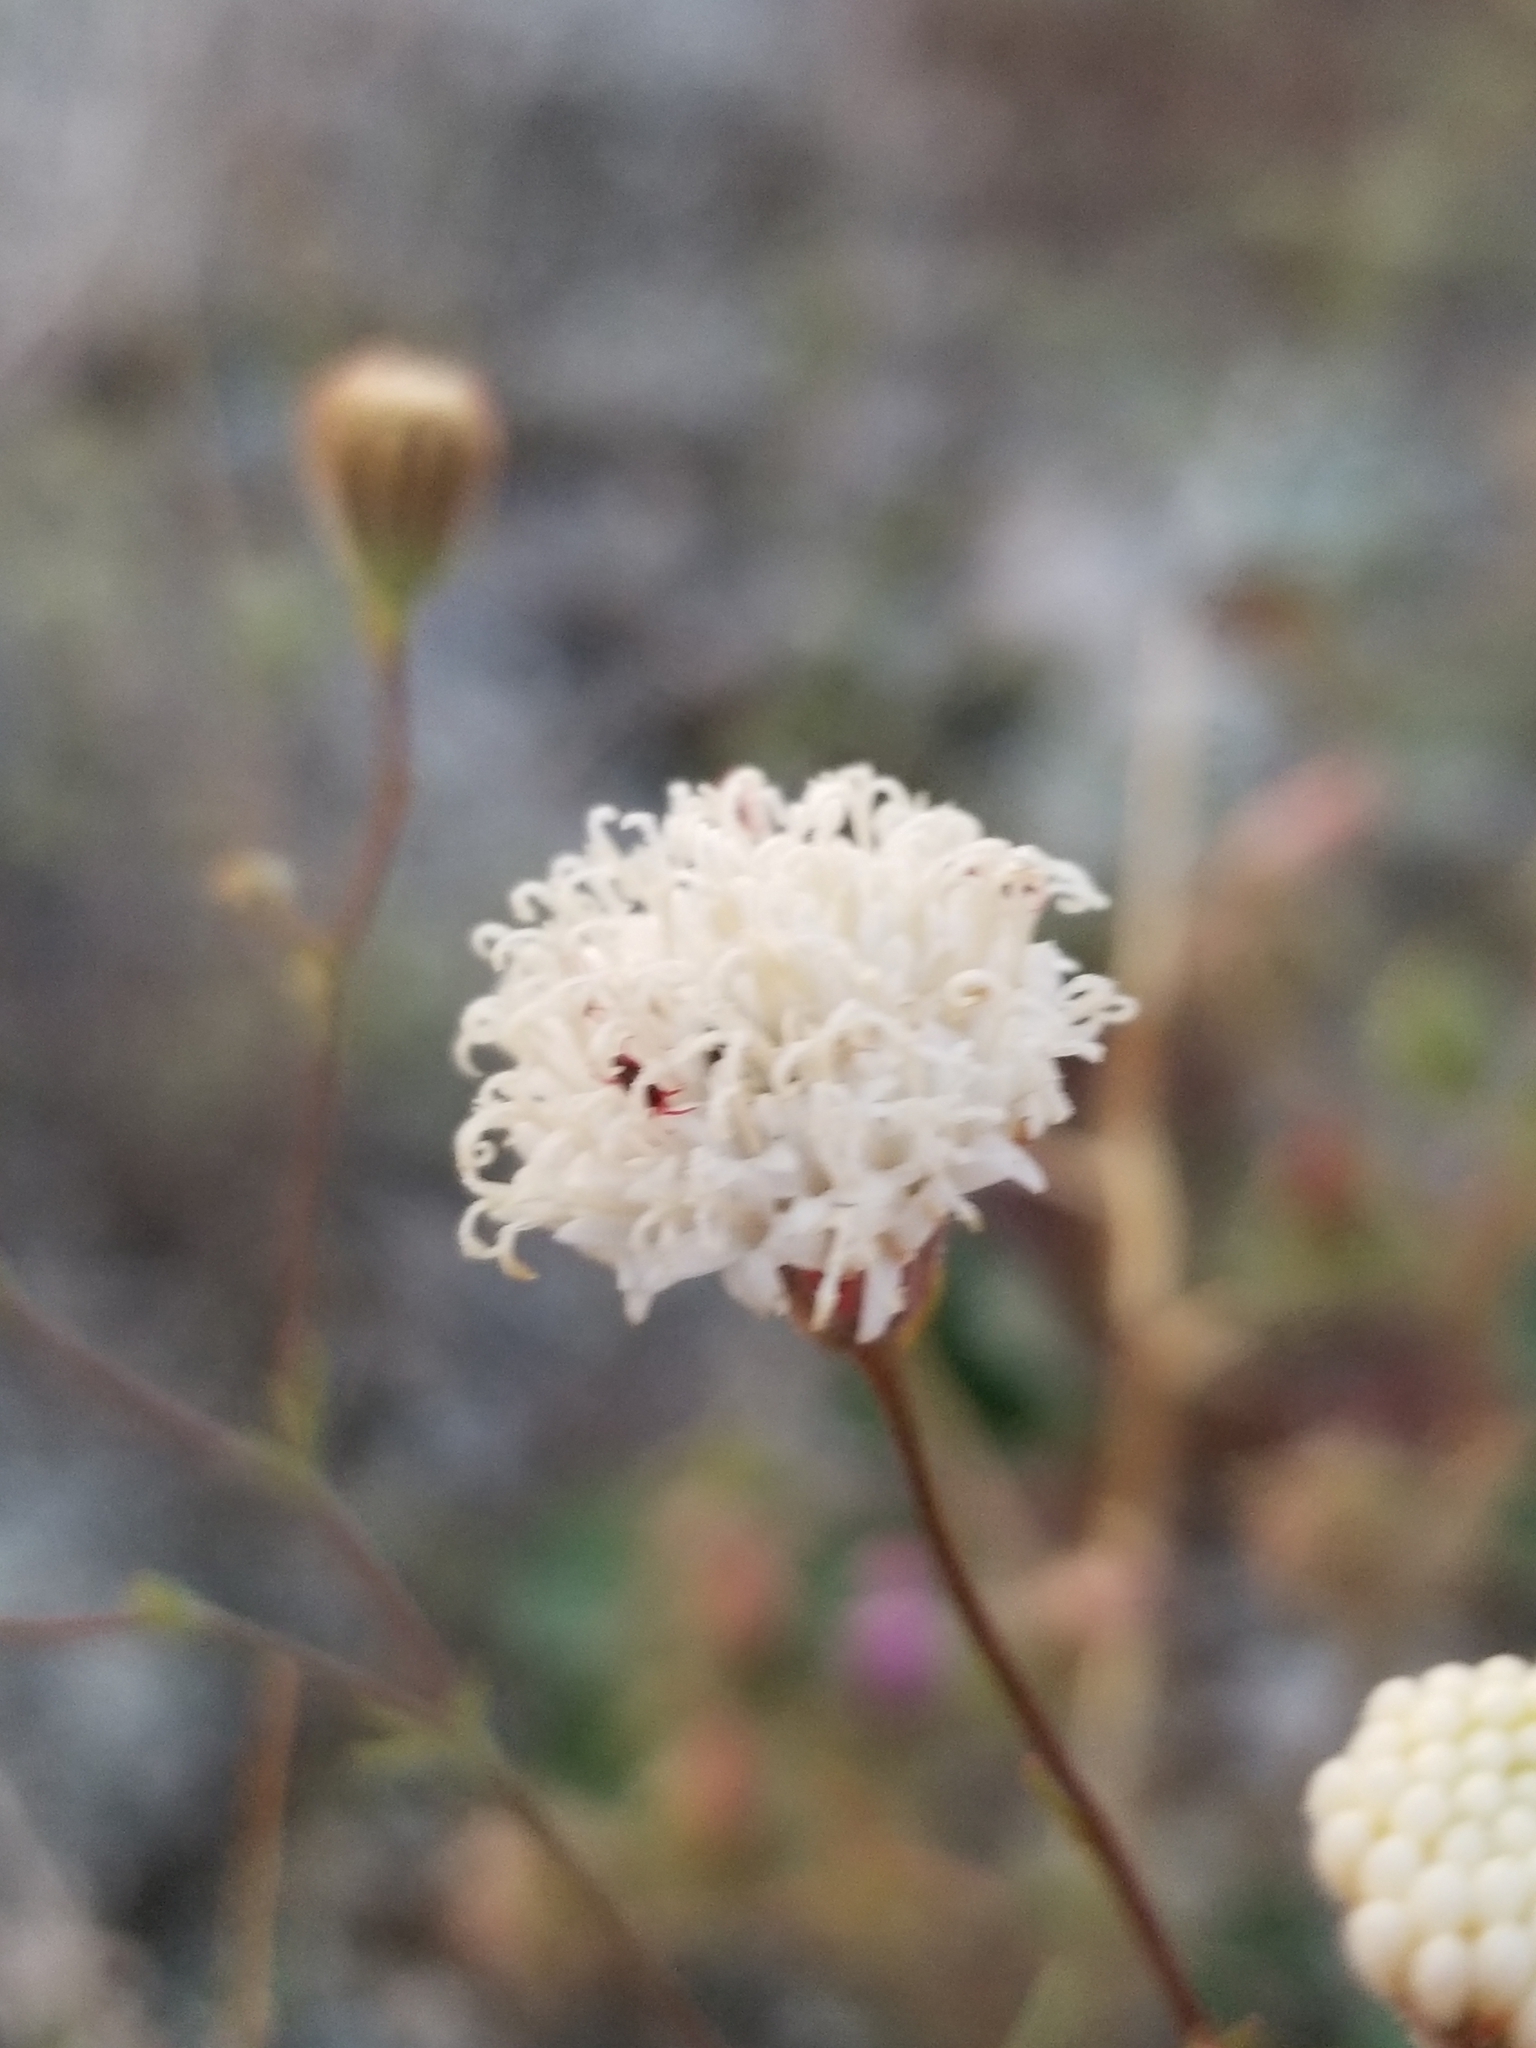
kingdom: Plantae
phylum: Tracheophyta
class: Magnoliopsida
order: Asterales
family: Asteraceae
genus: Chaenactis
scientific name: Chaenactis carphoclinia
